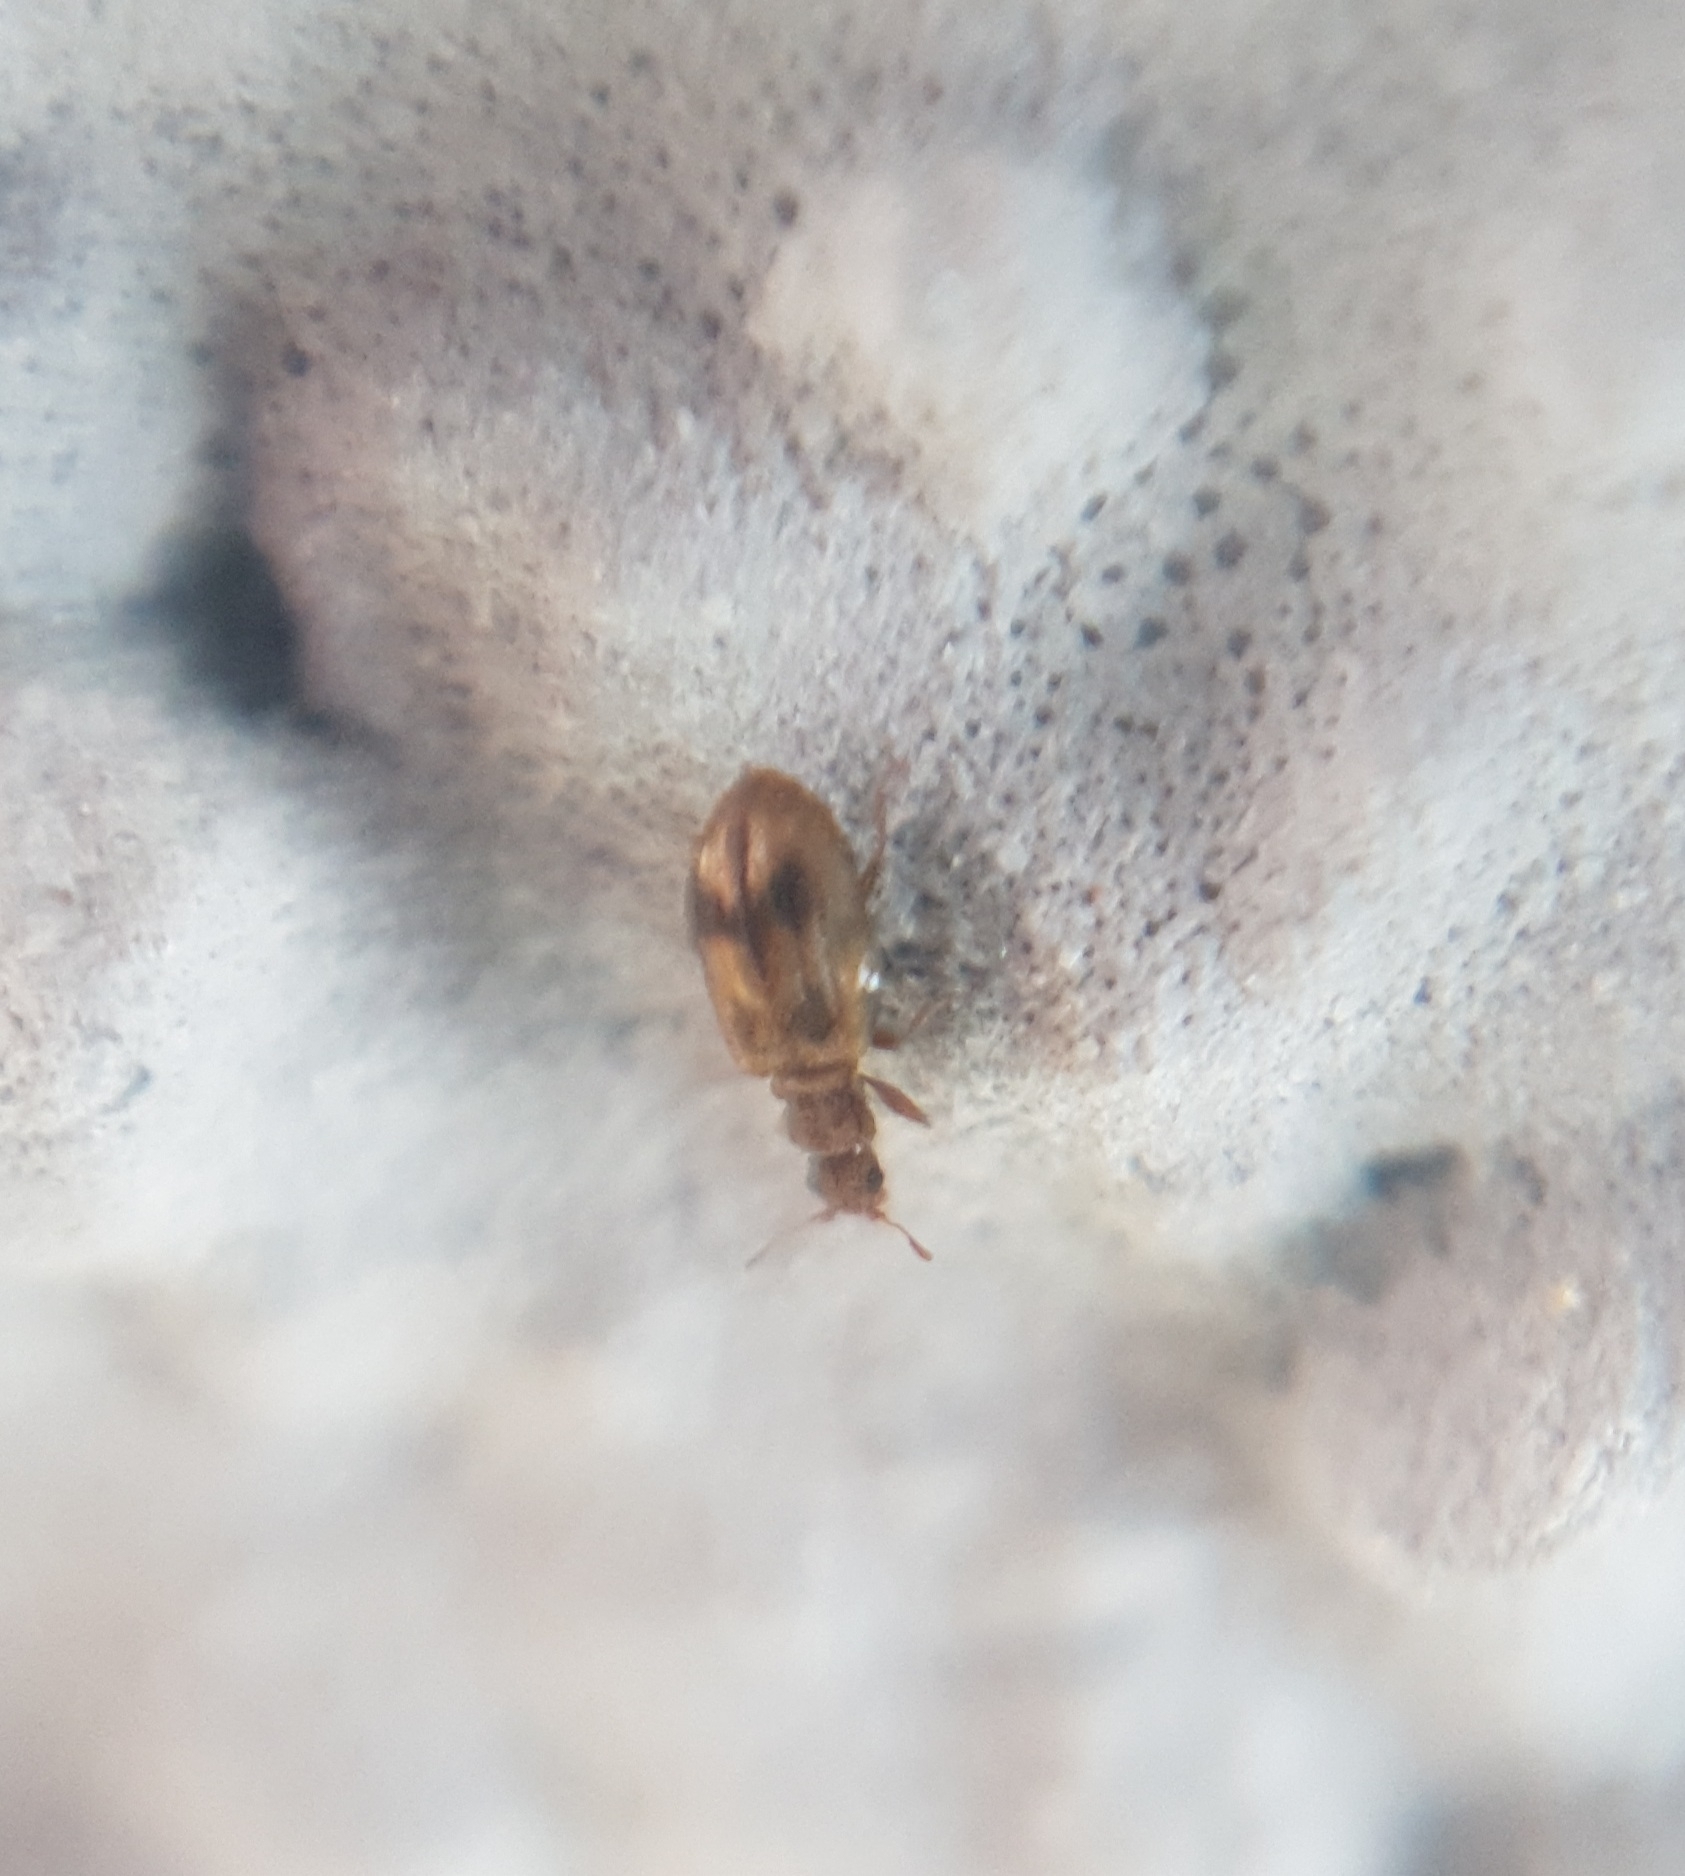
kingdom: Animalia
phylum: Arthropoda
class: Insecta
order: Coleoptera
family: Latridiidae
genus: Cartodere
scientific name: Cartodere bifasciata
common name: Plaster beetle
